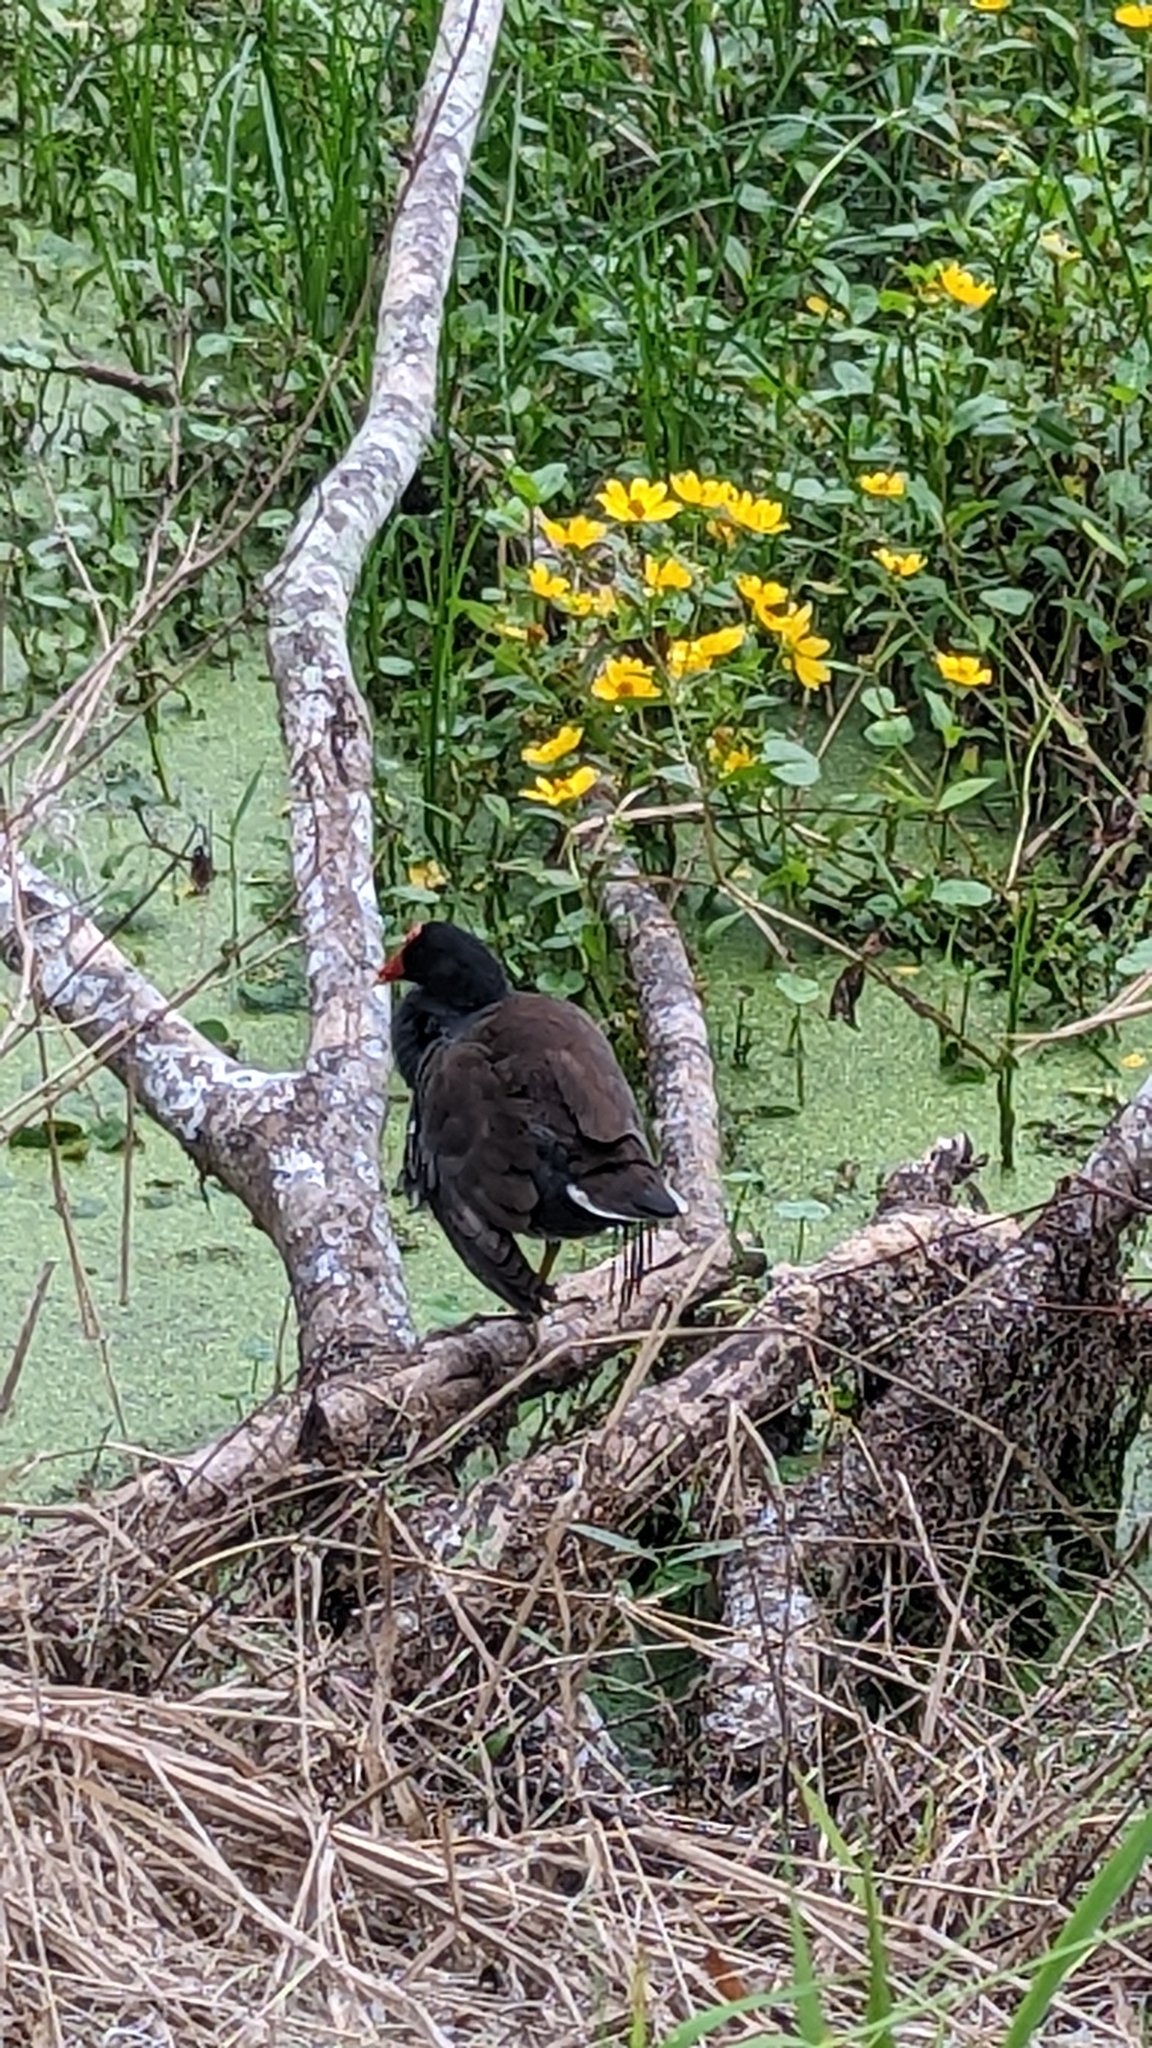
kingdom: Animalia
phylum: Chordata
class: Aves
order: Gruiformes
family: Rallidae
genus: Gallinula
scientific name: Gallinula chloropus
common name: Common moorhen
